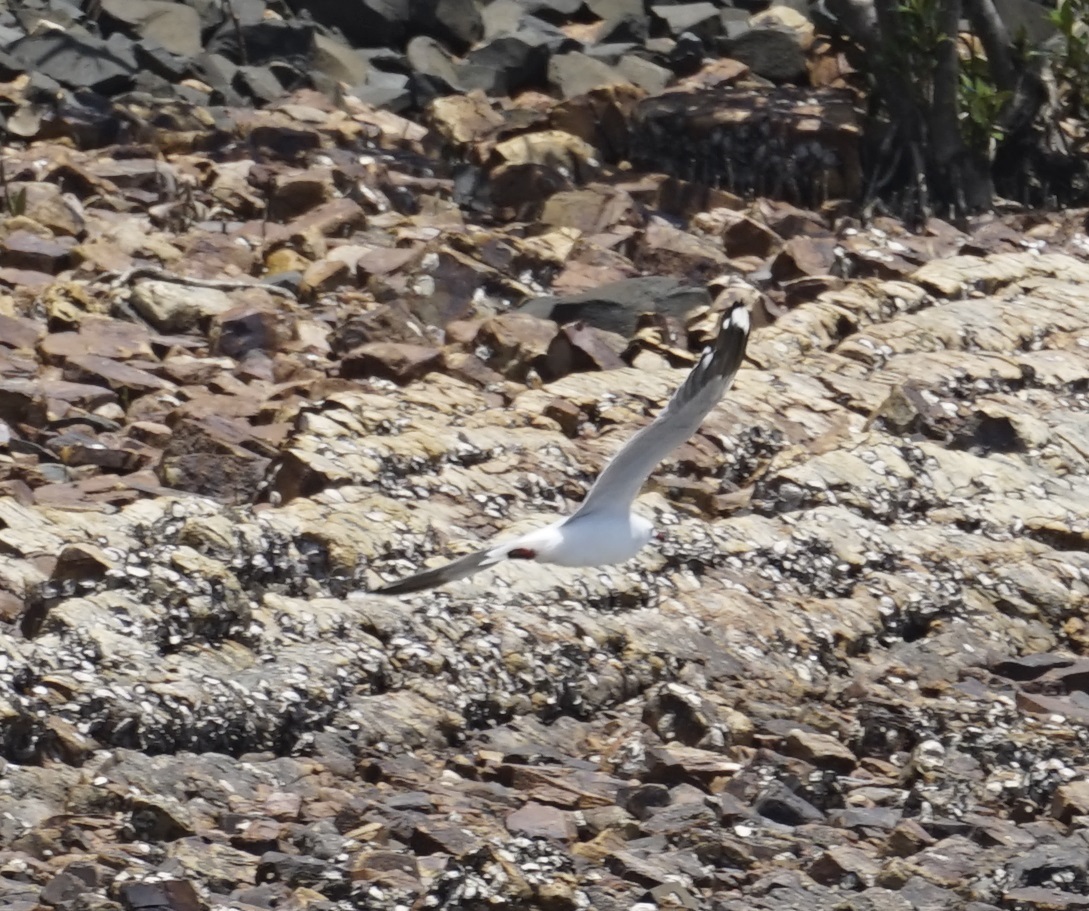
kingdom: Animalia
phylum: Chordata
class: Aves
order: Charadriiformes
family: Laridae
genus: Chroicocephalus
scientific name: Chroicocephalus novaehollandiae
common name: Silver gull
